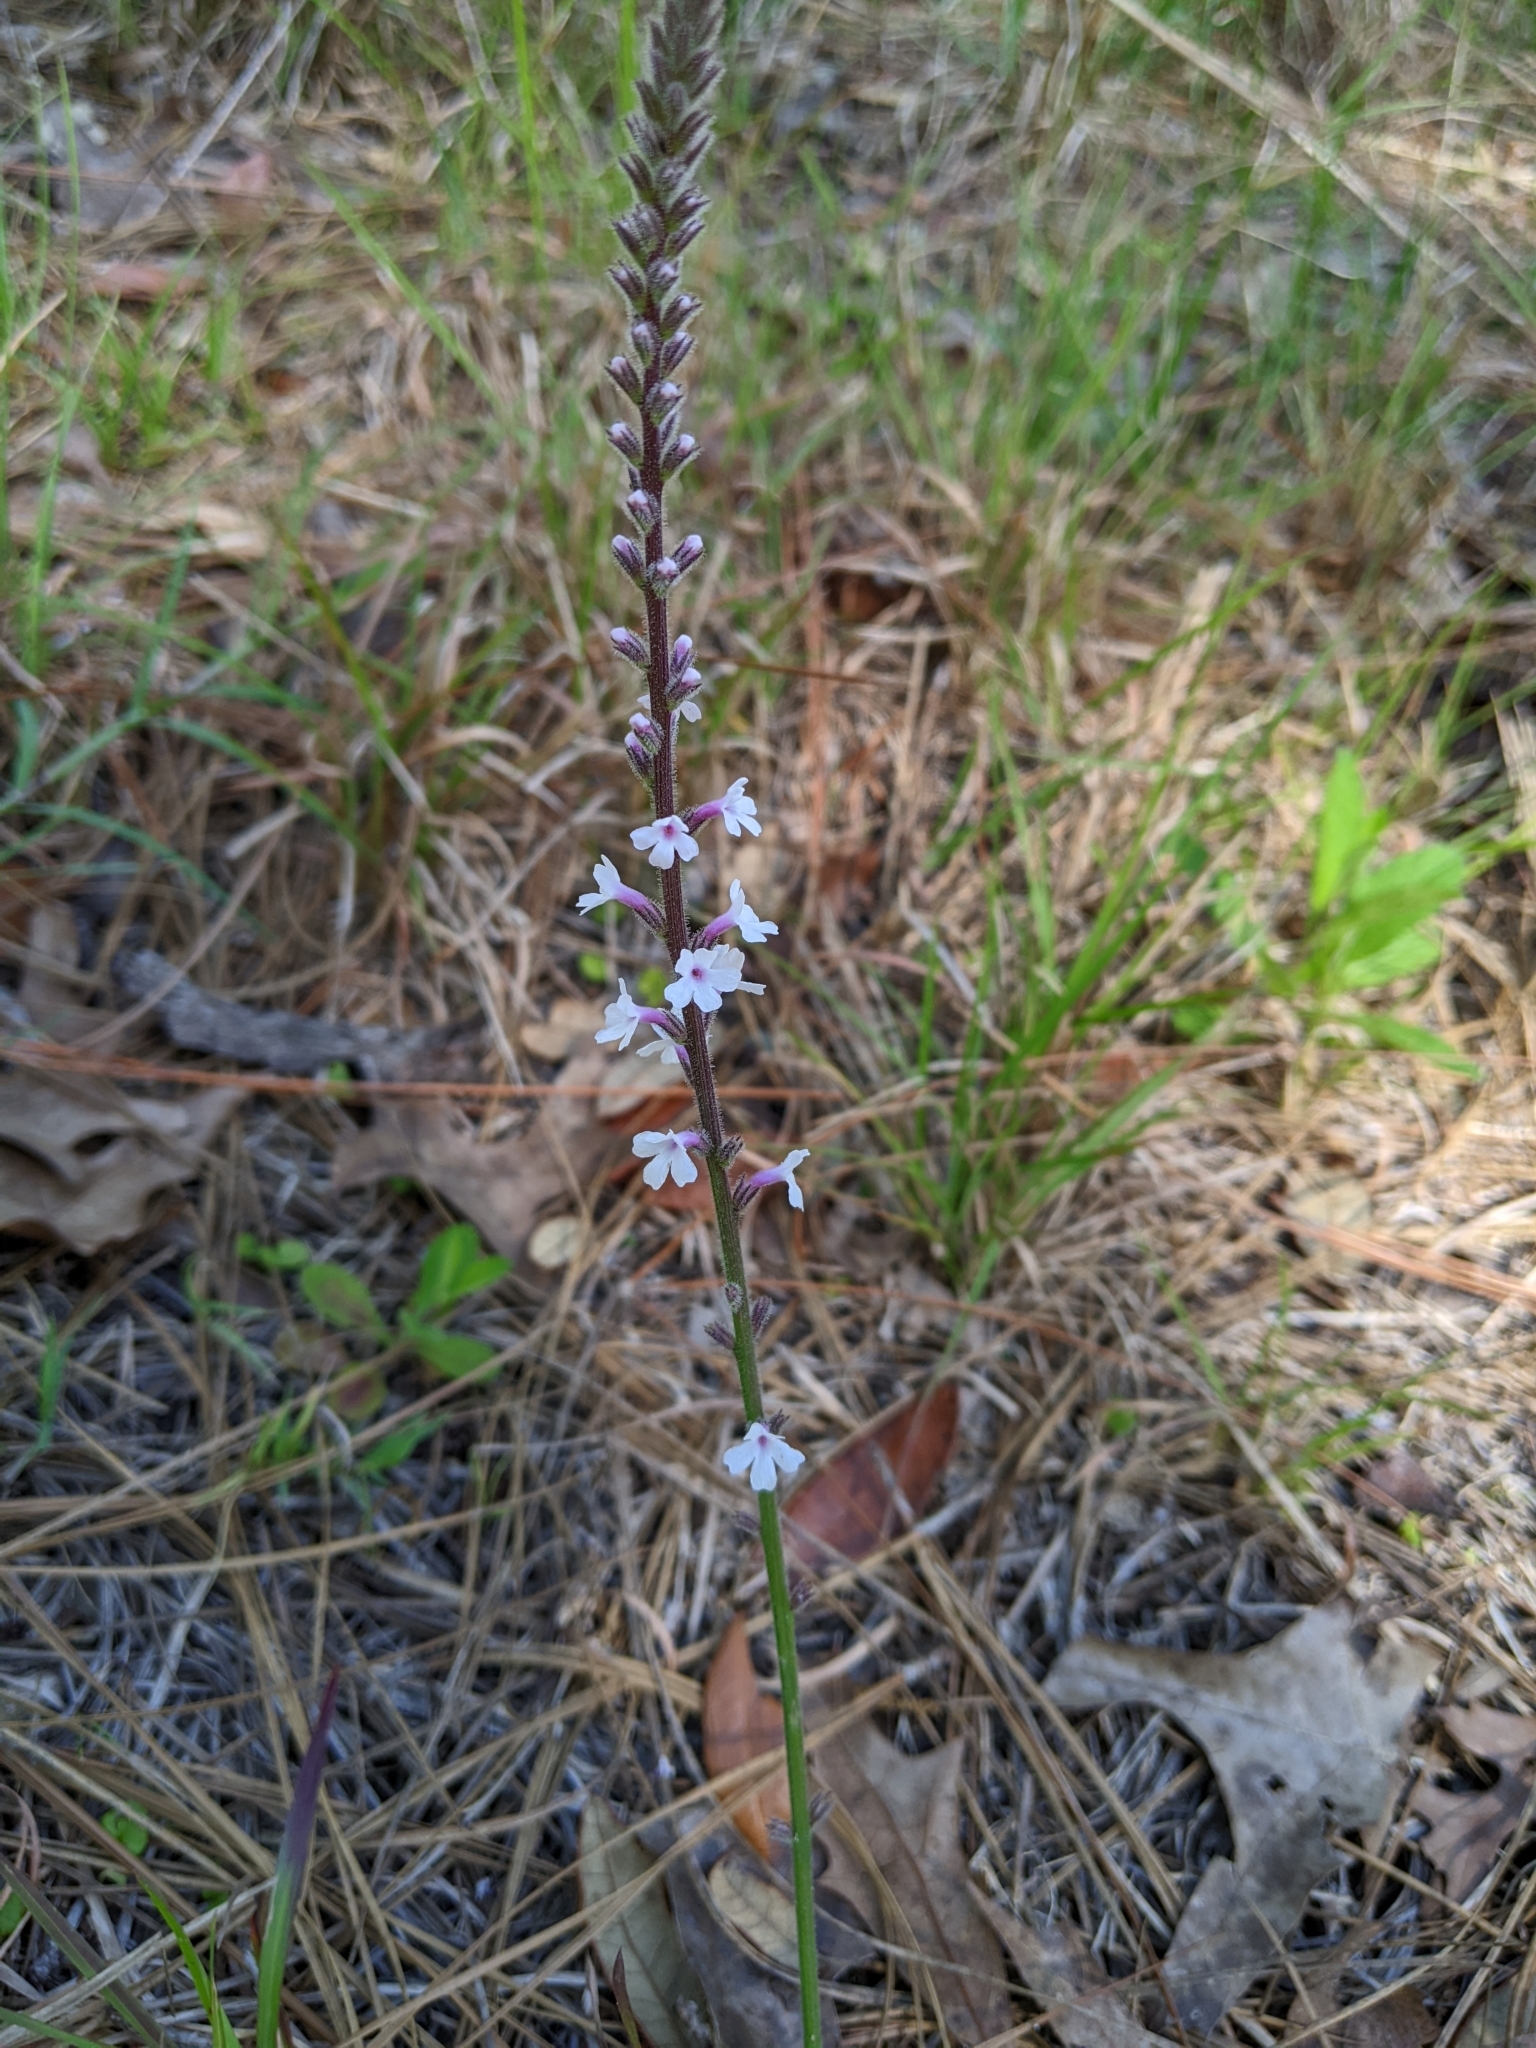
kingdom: Plantae
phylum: Tracheophyta
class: Magnoliopsida
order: Lamiales
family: Orobanchaceae
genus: Buchnera
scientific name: Buchnera floridana
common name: Florida bluehearts
